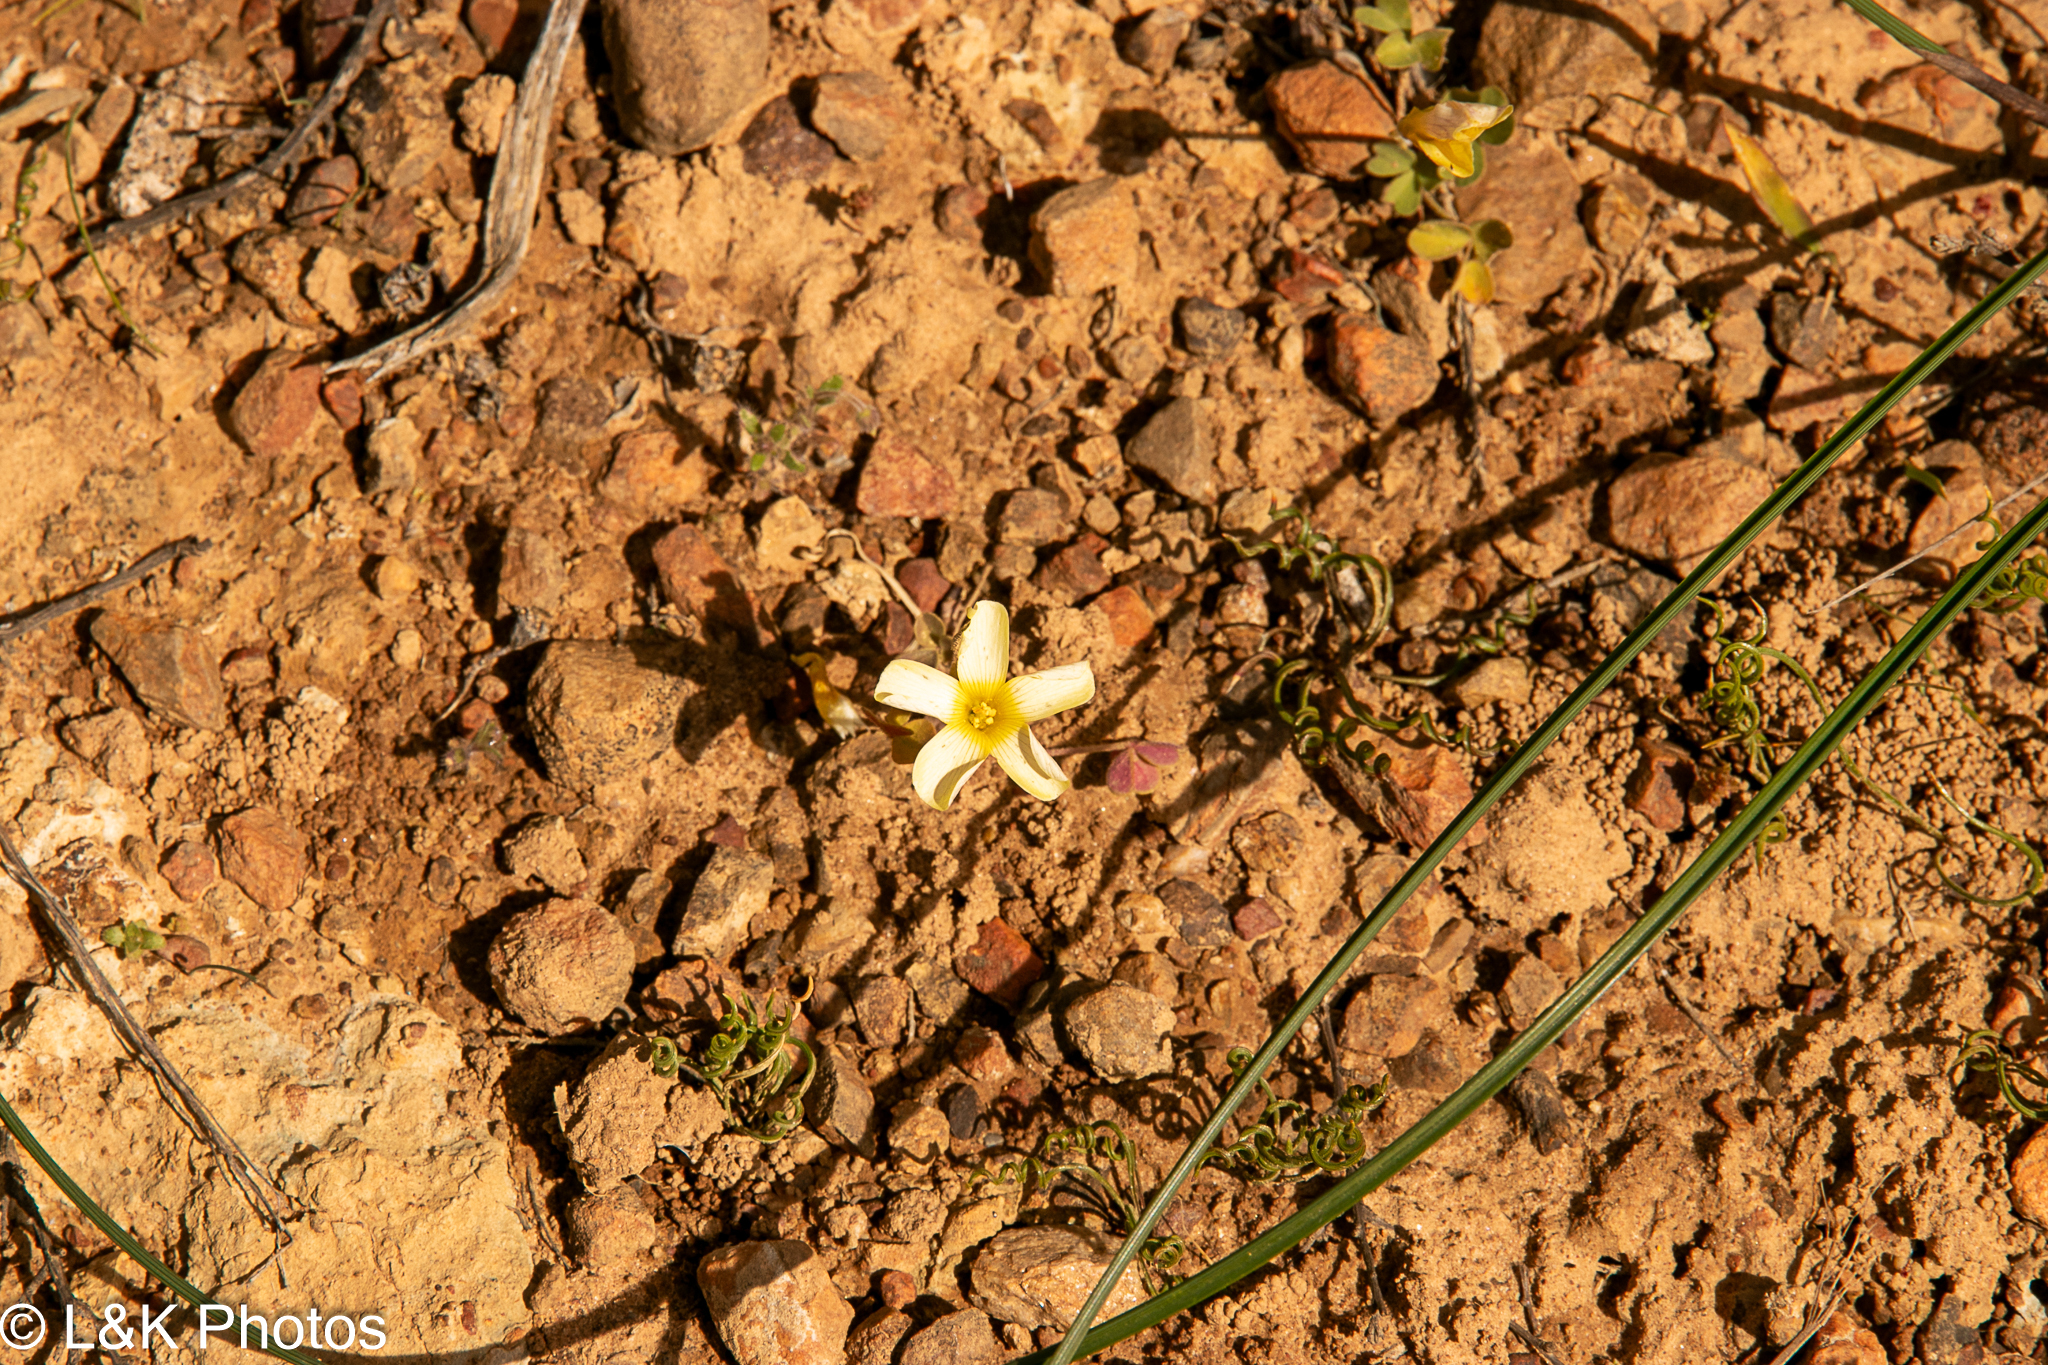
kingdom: Plantae
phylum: Tracheophyta
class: Magnoliopsida
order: Oxalidales
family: Oxalidaceae
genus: Oxalis
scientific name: Oxalis obtusa
